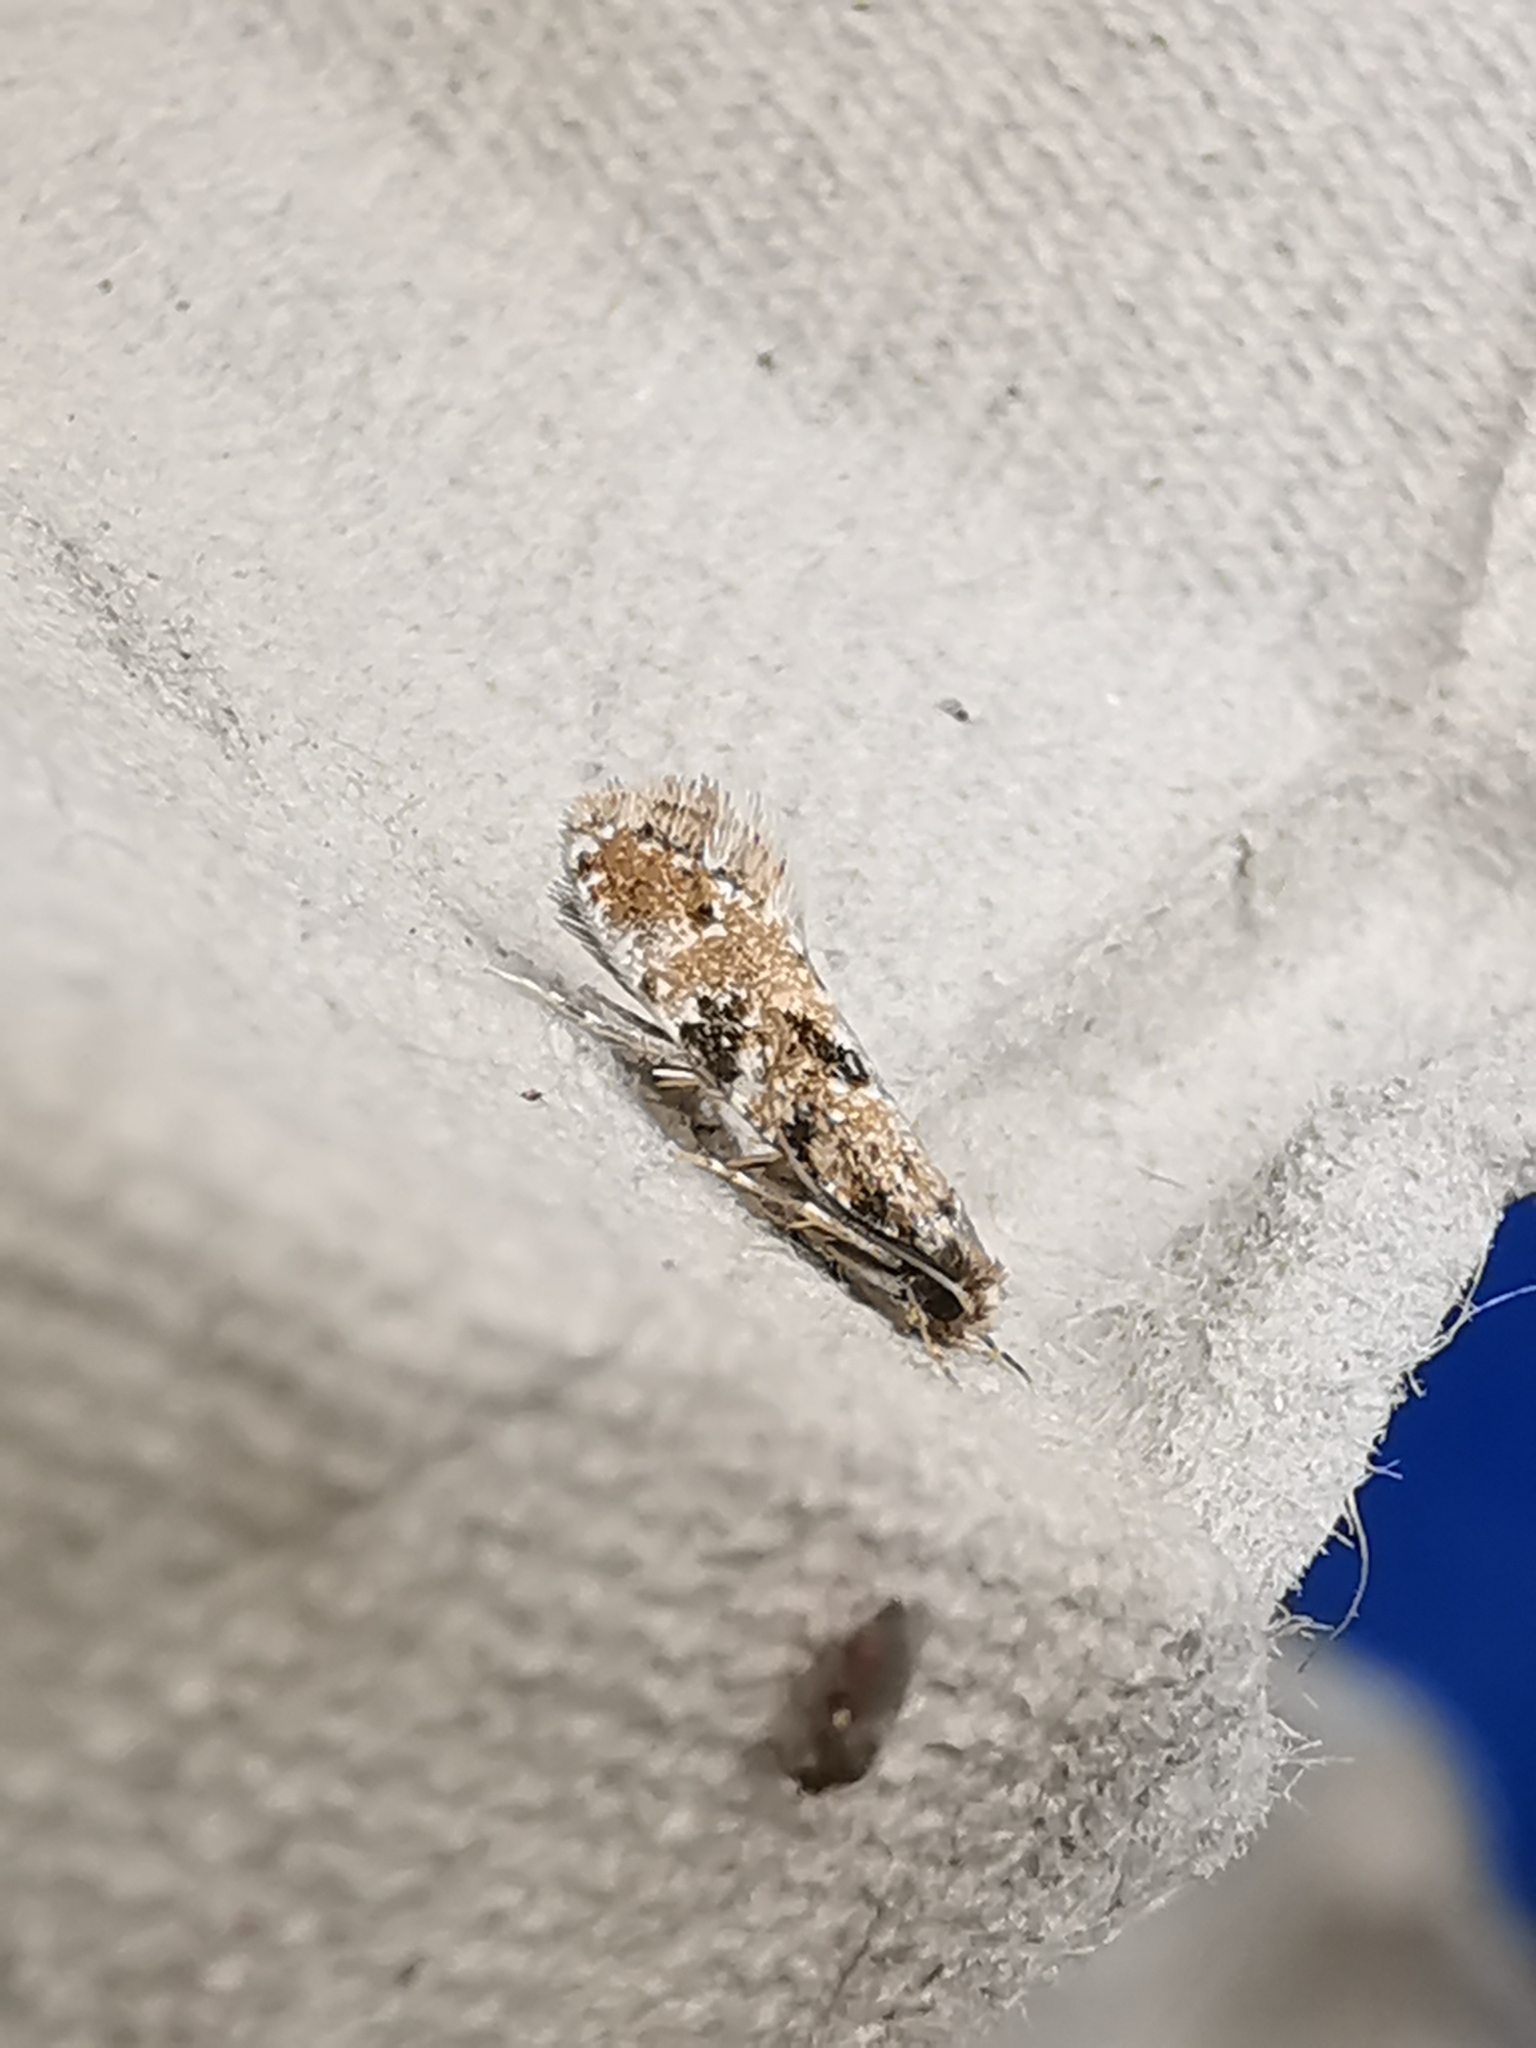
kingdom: Animalia
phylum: Arthropoda
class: Insecta
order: Lepidoptera
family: Tineidae
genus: Nemapogon
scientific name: Nemapogon cloacella
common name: Cork moth
